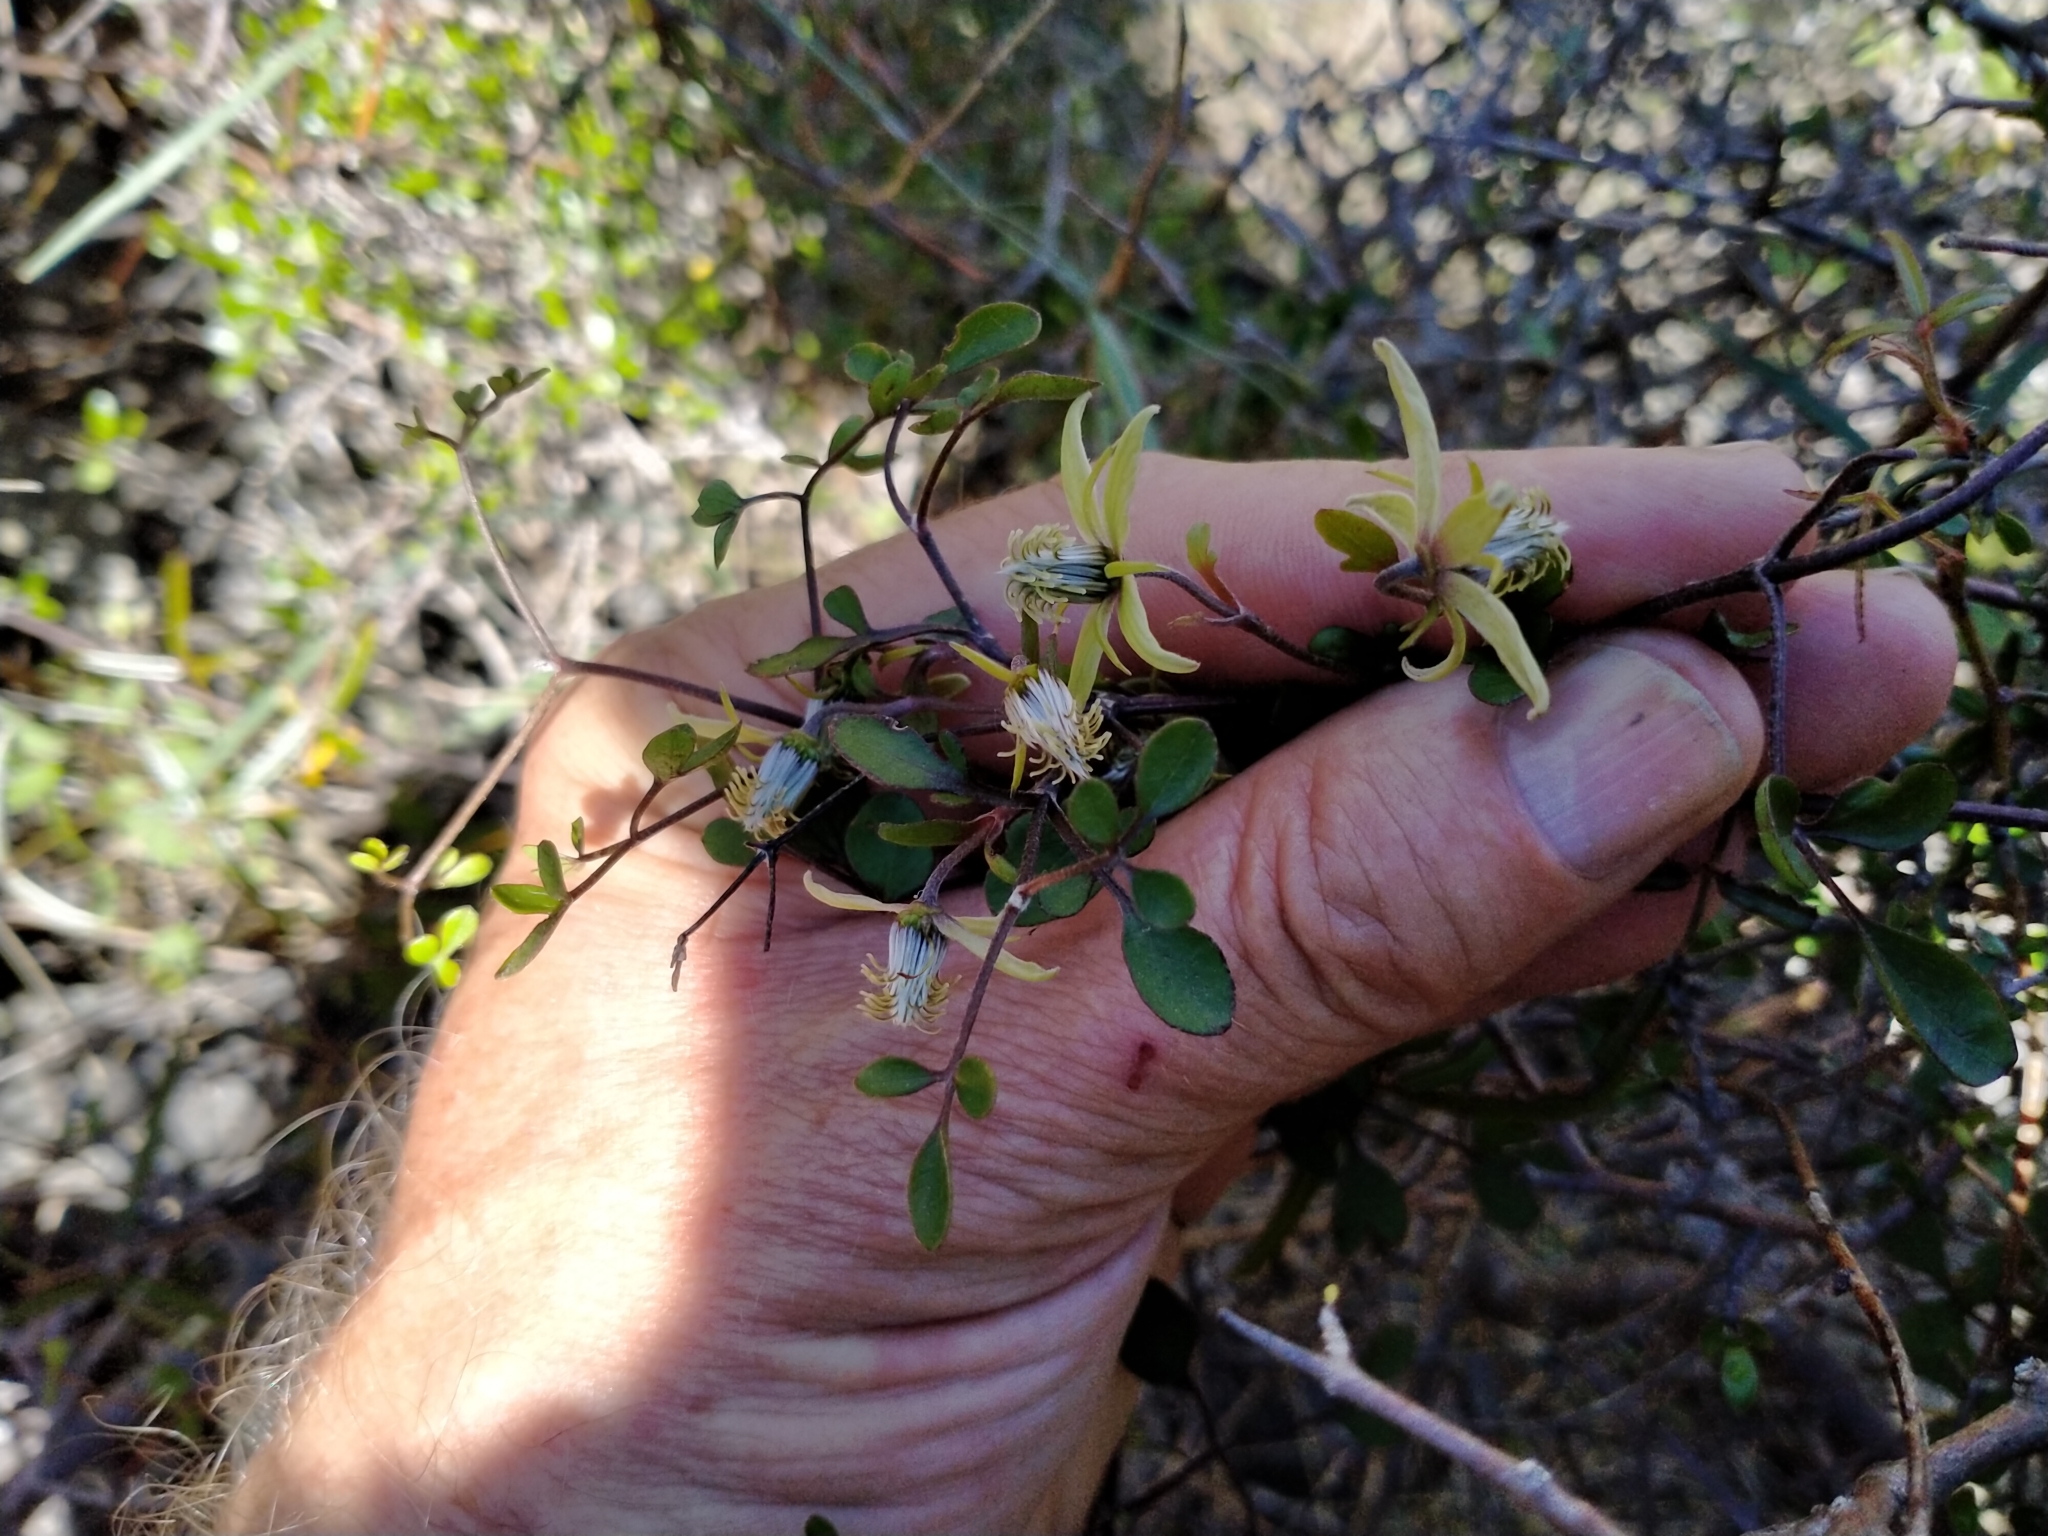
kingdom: Plantae
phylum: Tracheophyta
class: Magnoliopsida
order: Ranunculales
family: Ranunculaceae
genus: Clematis
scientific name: Clematis marata
